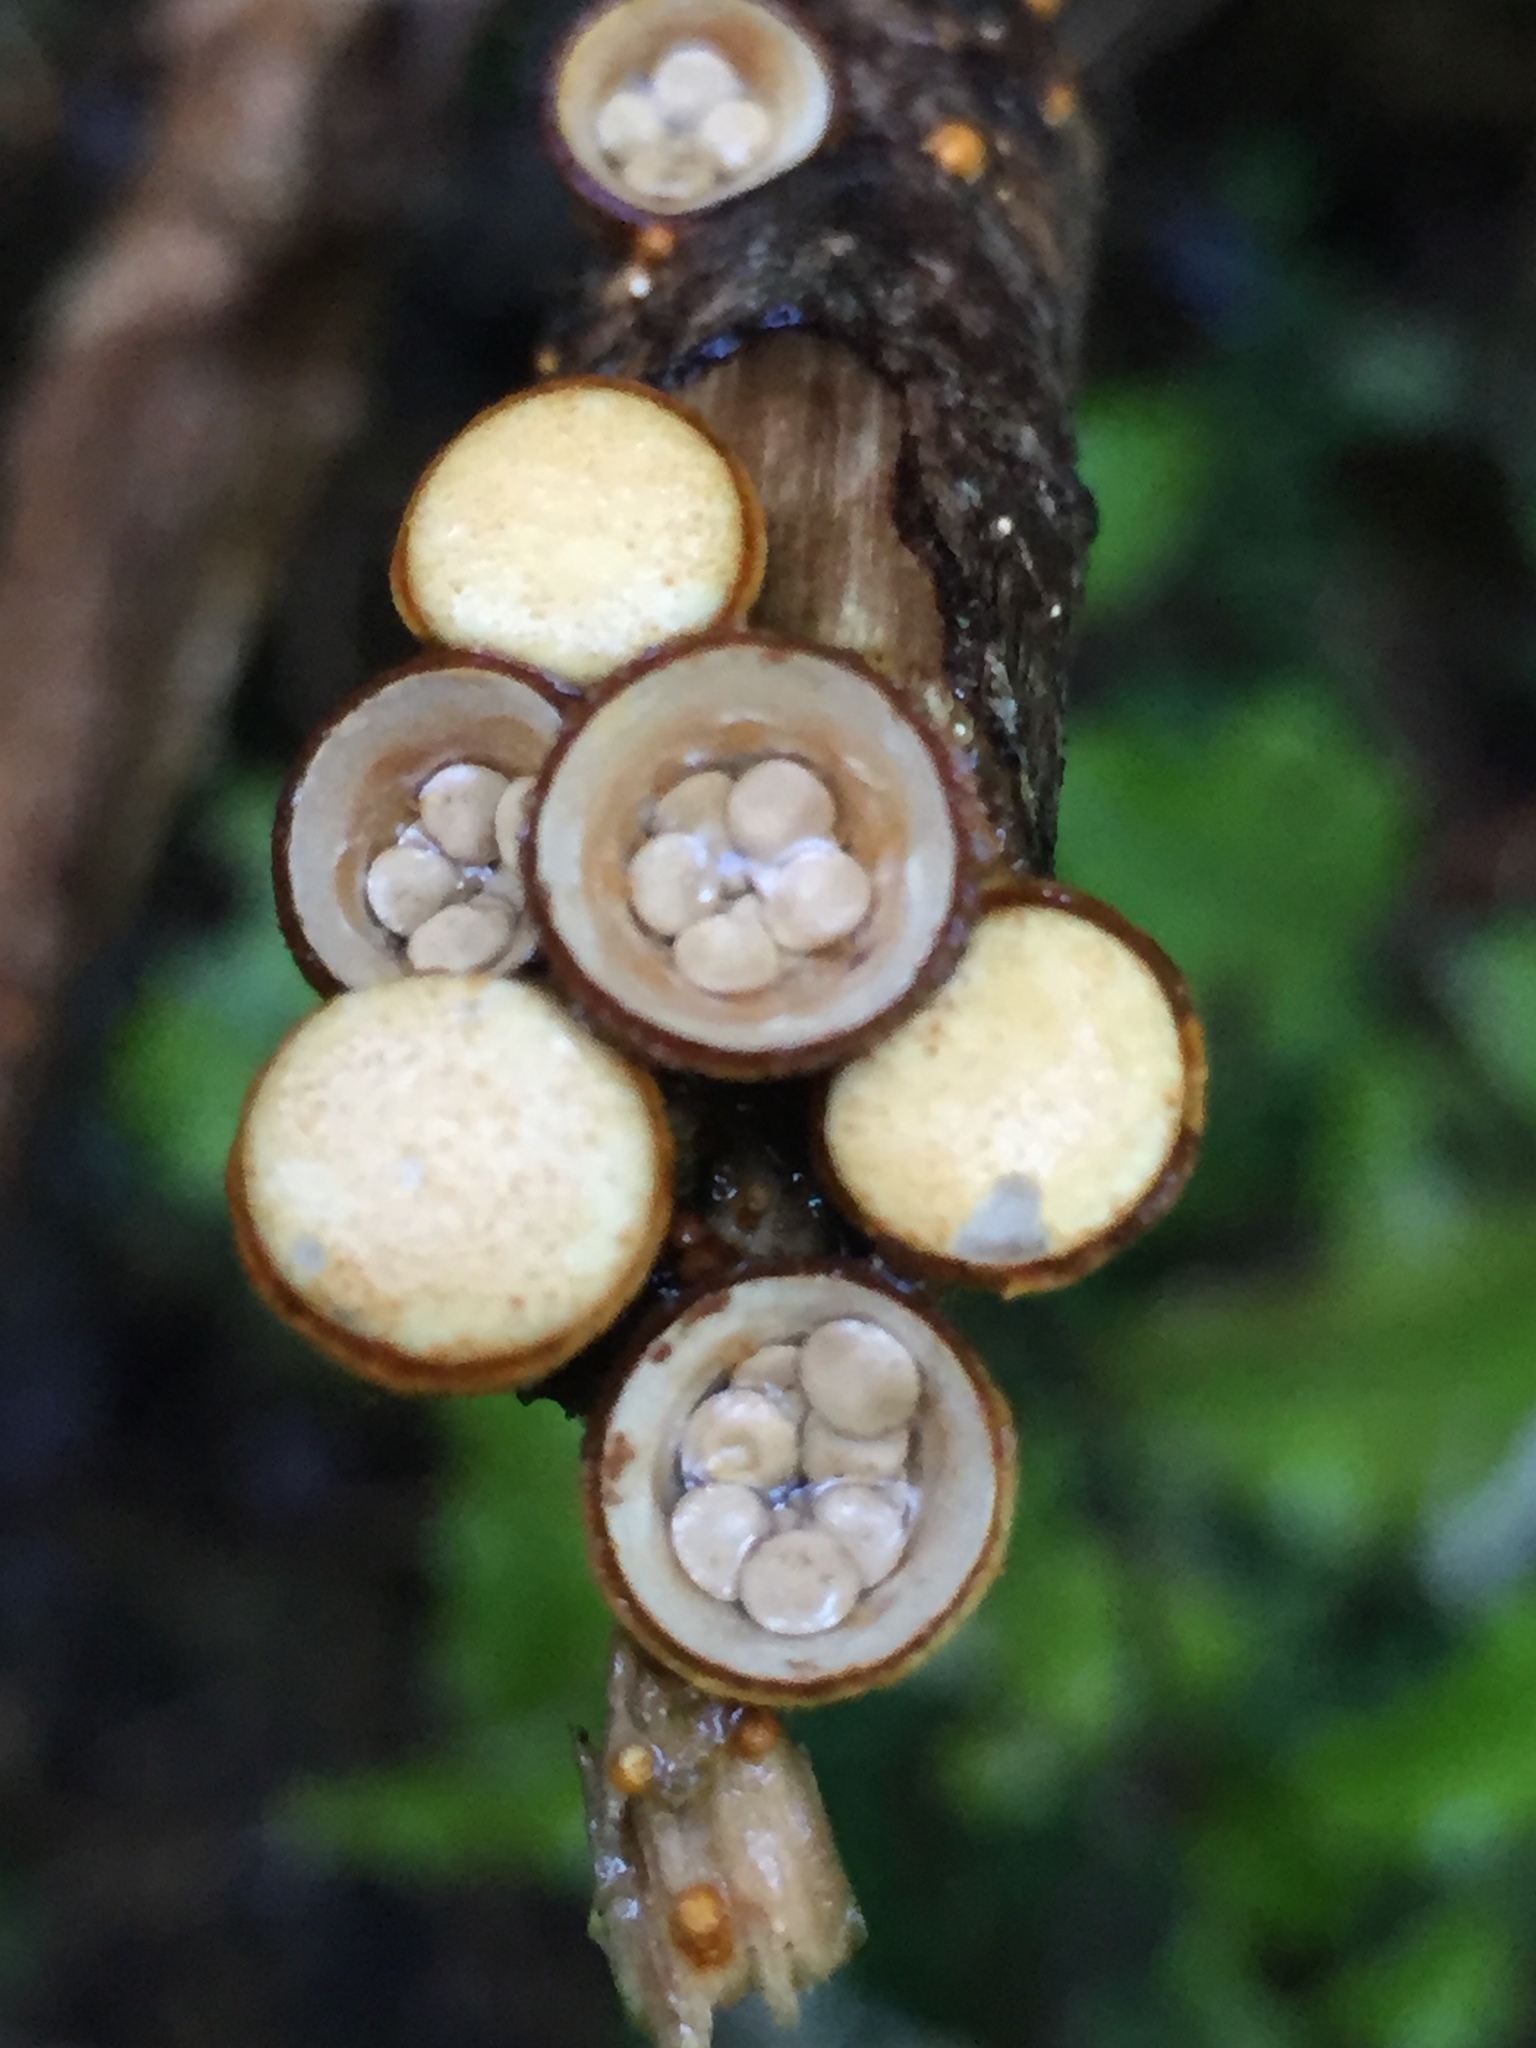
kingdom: Fungi
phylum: Basidiomycota
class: Agaricomycetes
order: Agaricales
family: Nidulariaceae
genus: Crucibulum
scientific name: Crucibulum simile
